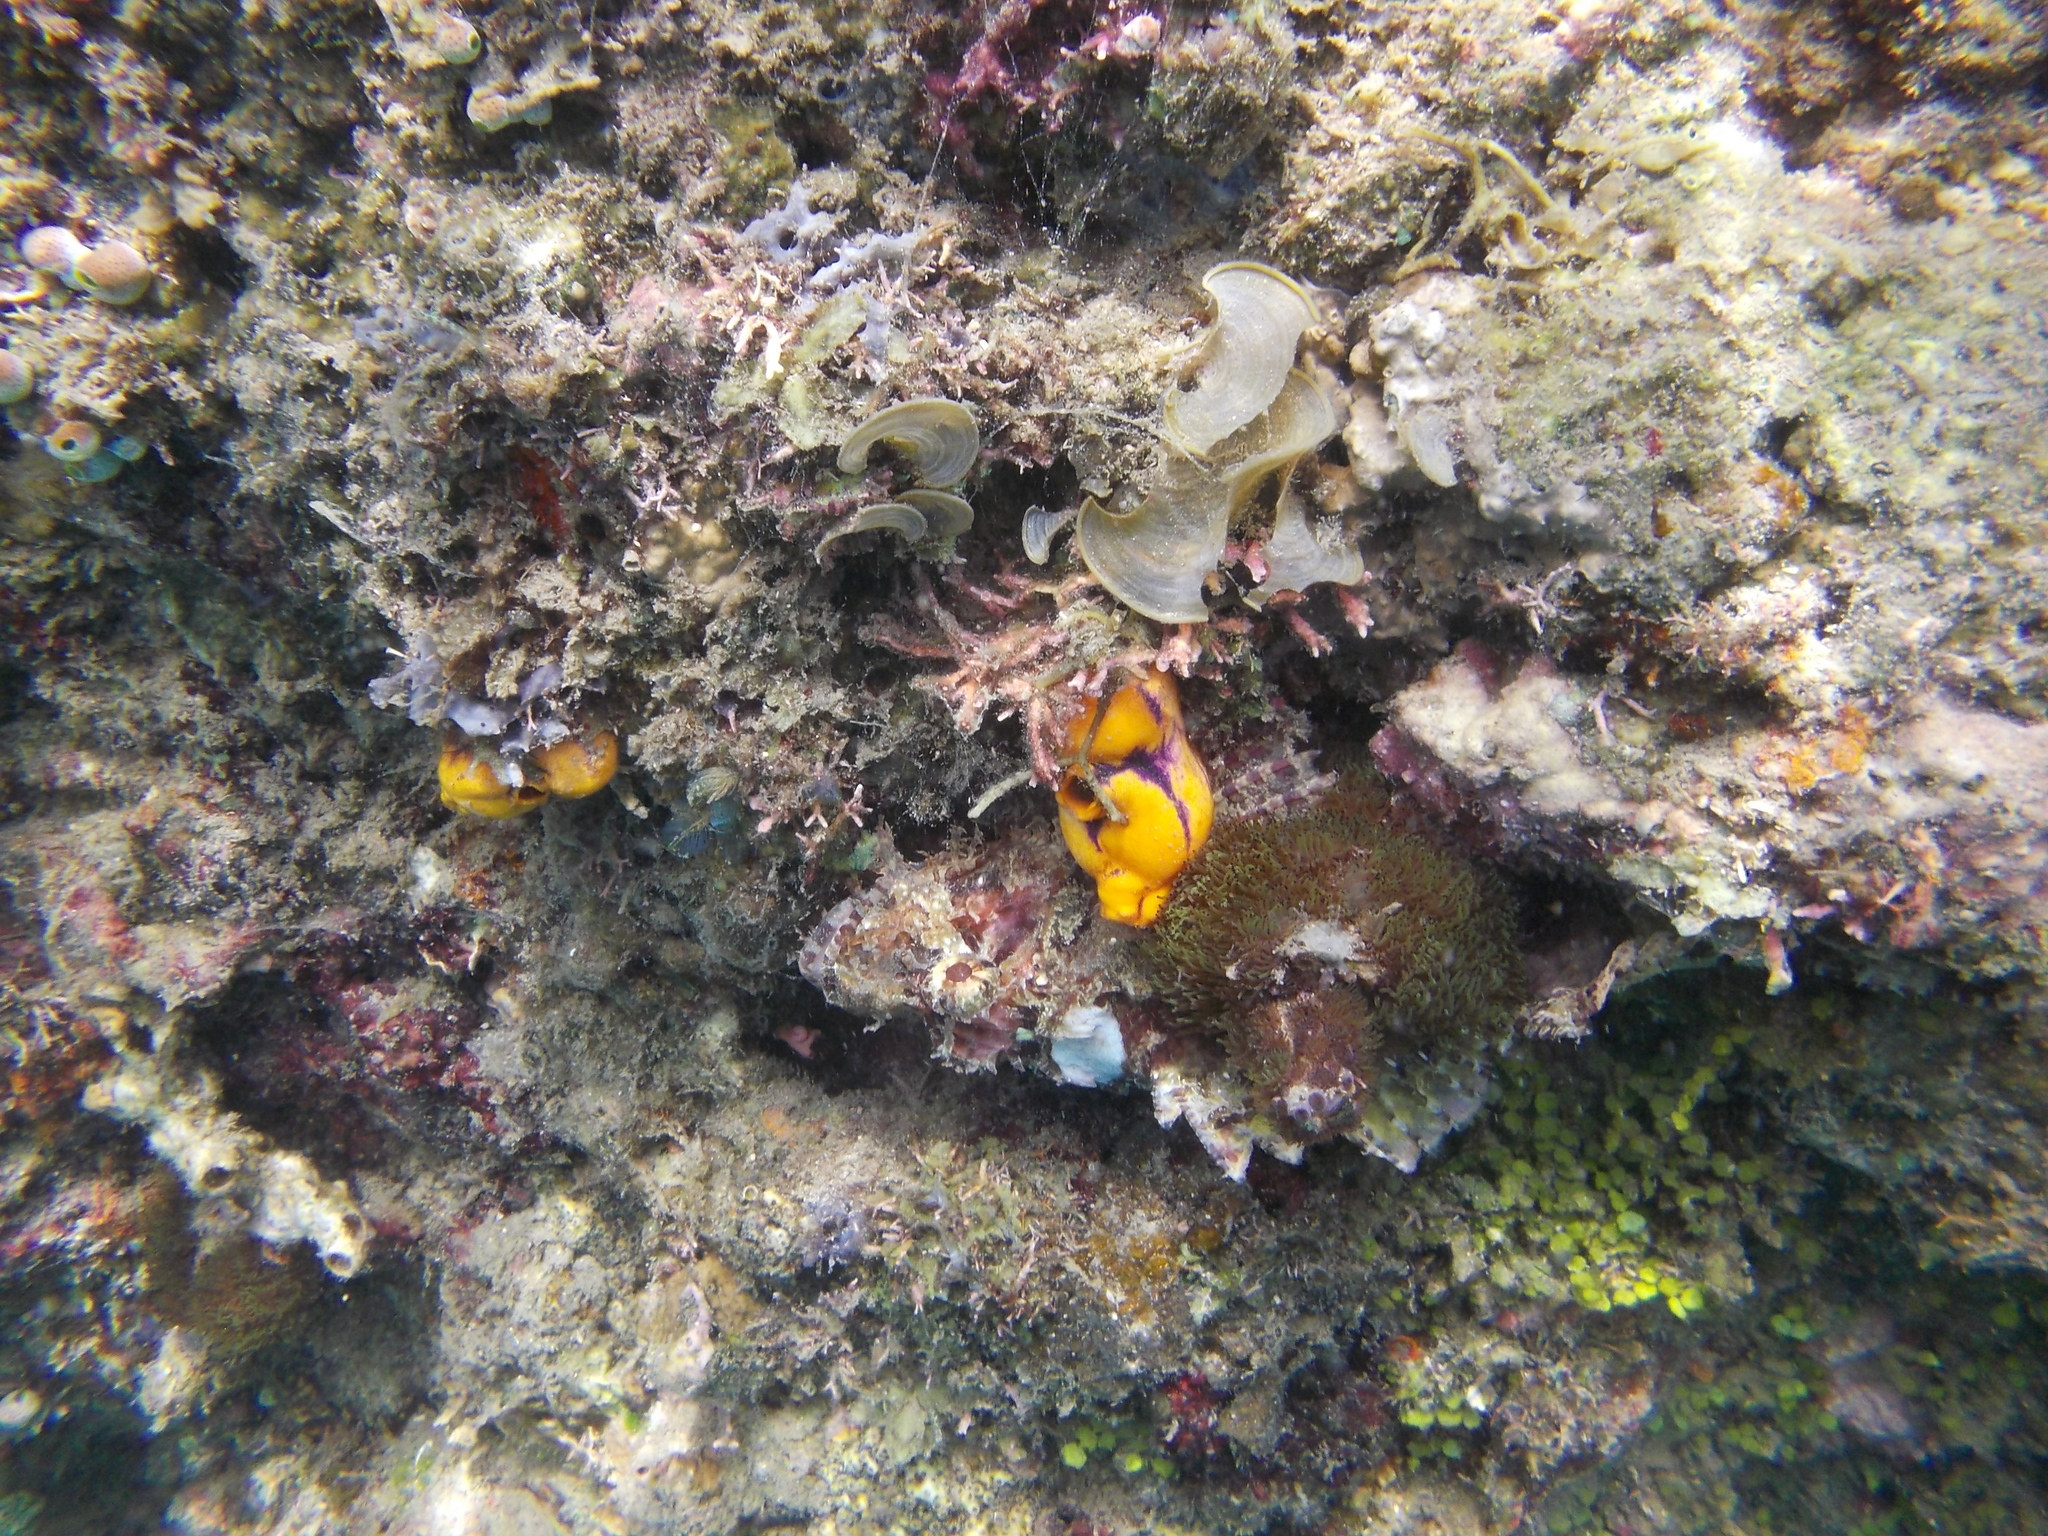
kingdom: Animalia
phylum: Chordata
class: Ascidiacea
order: Stolidobranchia
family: Styelidae
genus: Polycarpa
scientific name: Polycarpa aurata
